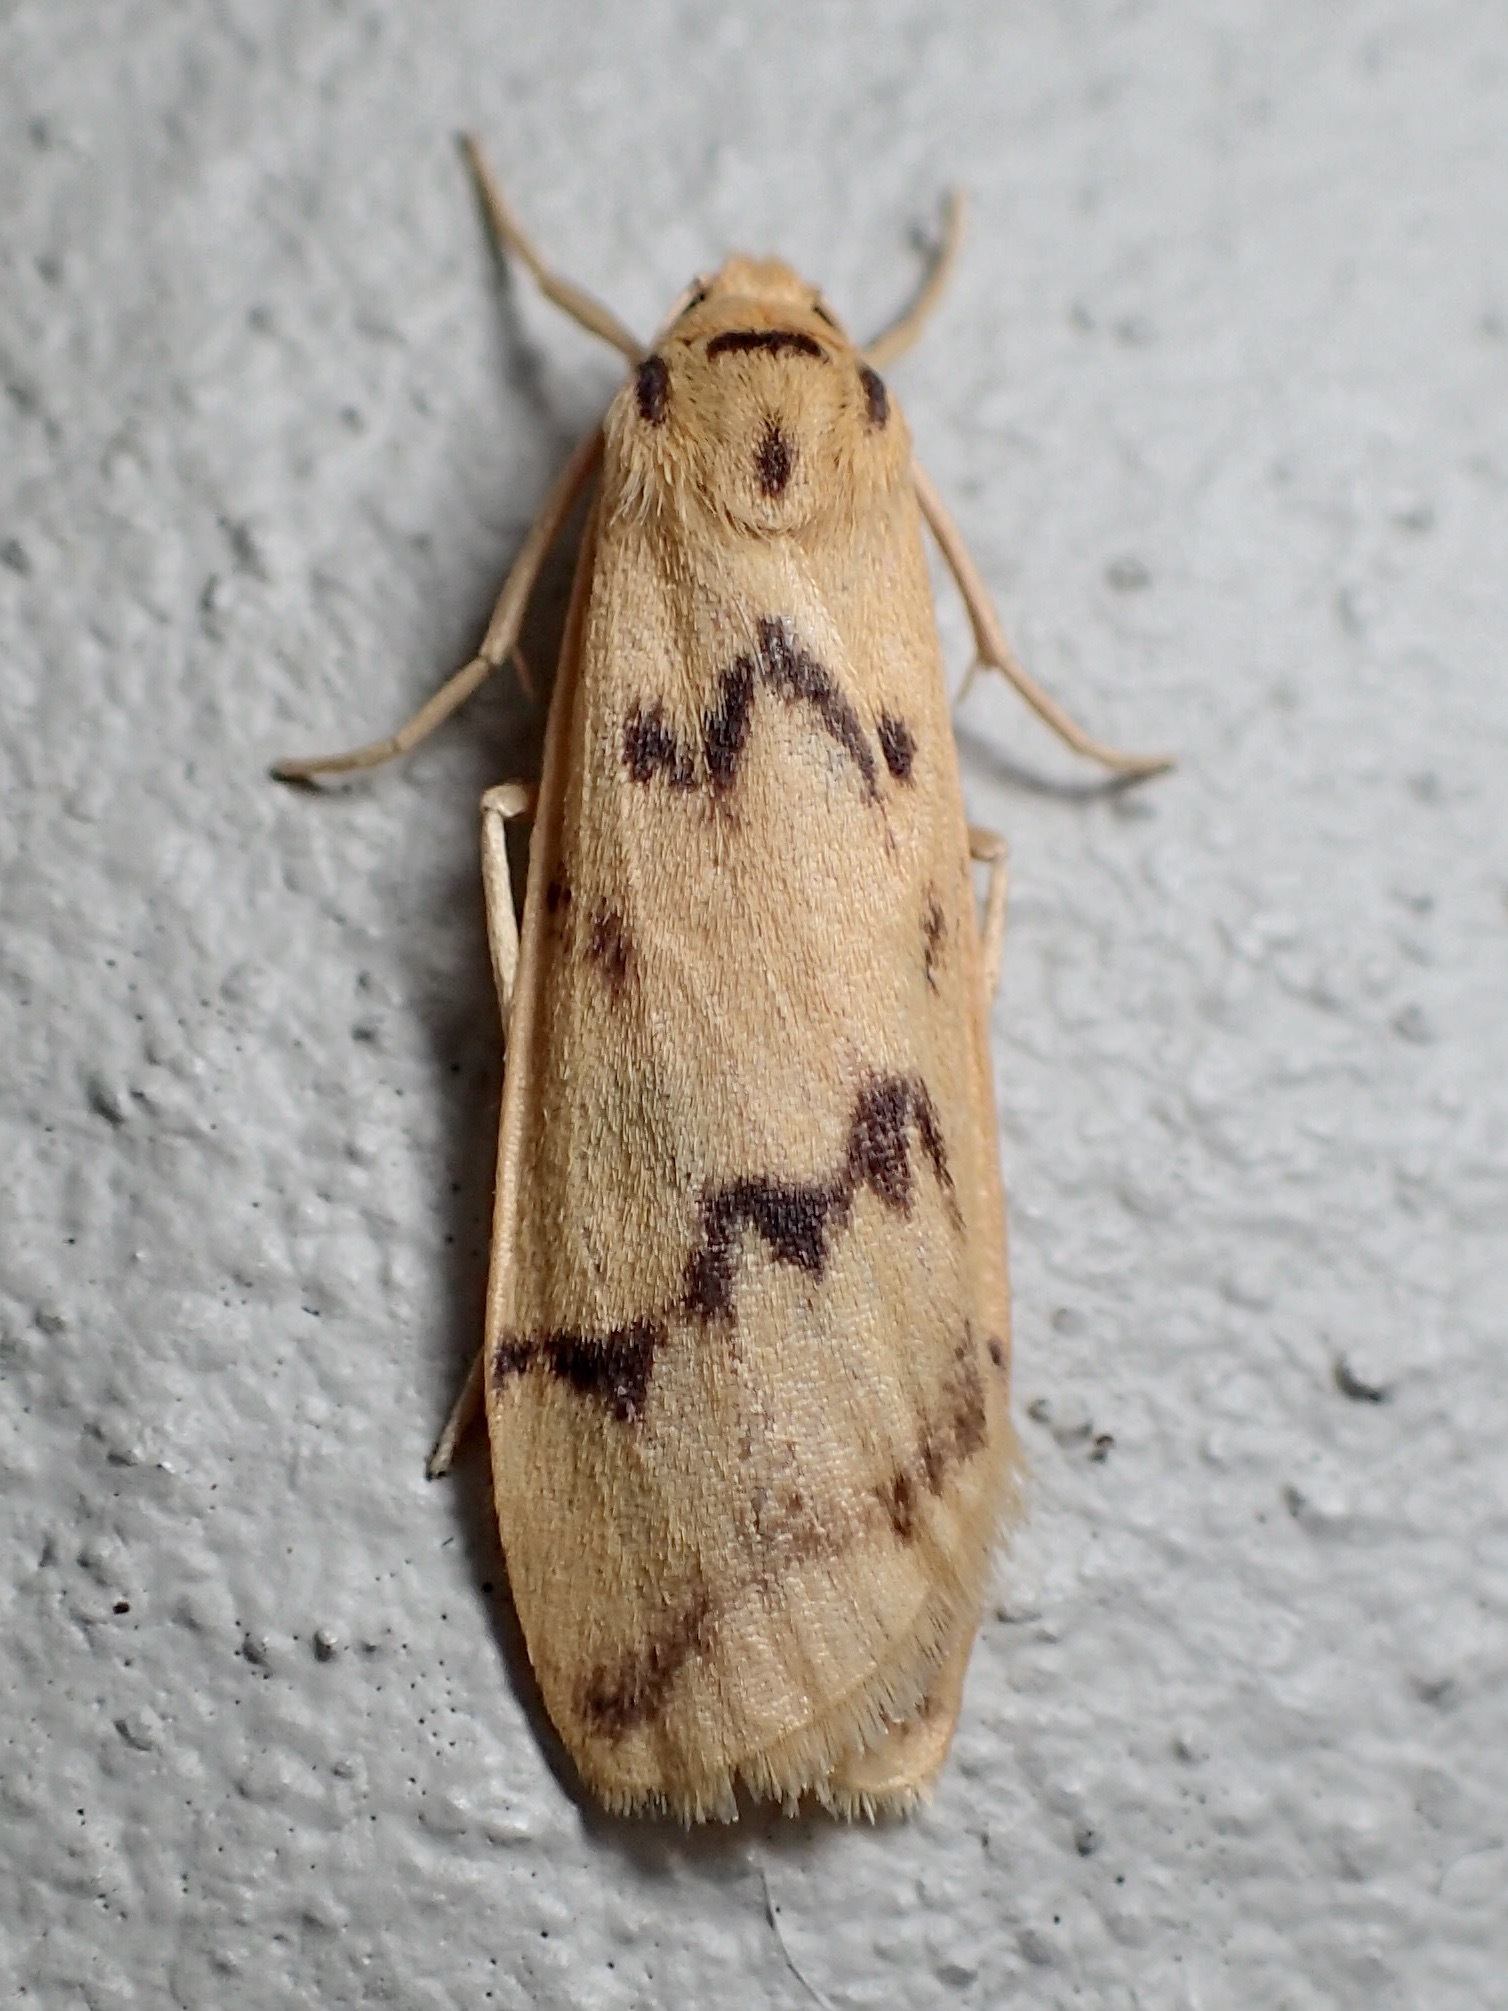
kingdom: Animalia
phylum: Arthropoda
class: Insecta
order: Lepidoptera
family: Erebidae
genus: Tigrioides
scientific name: Tigrioides alterna
